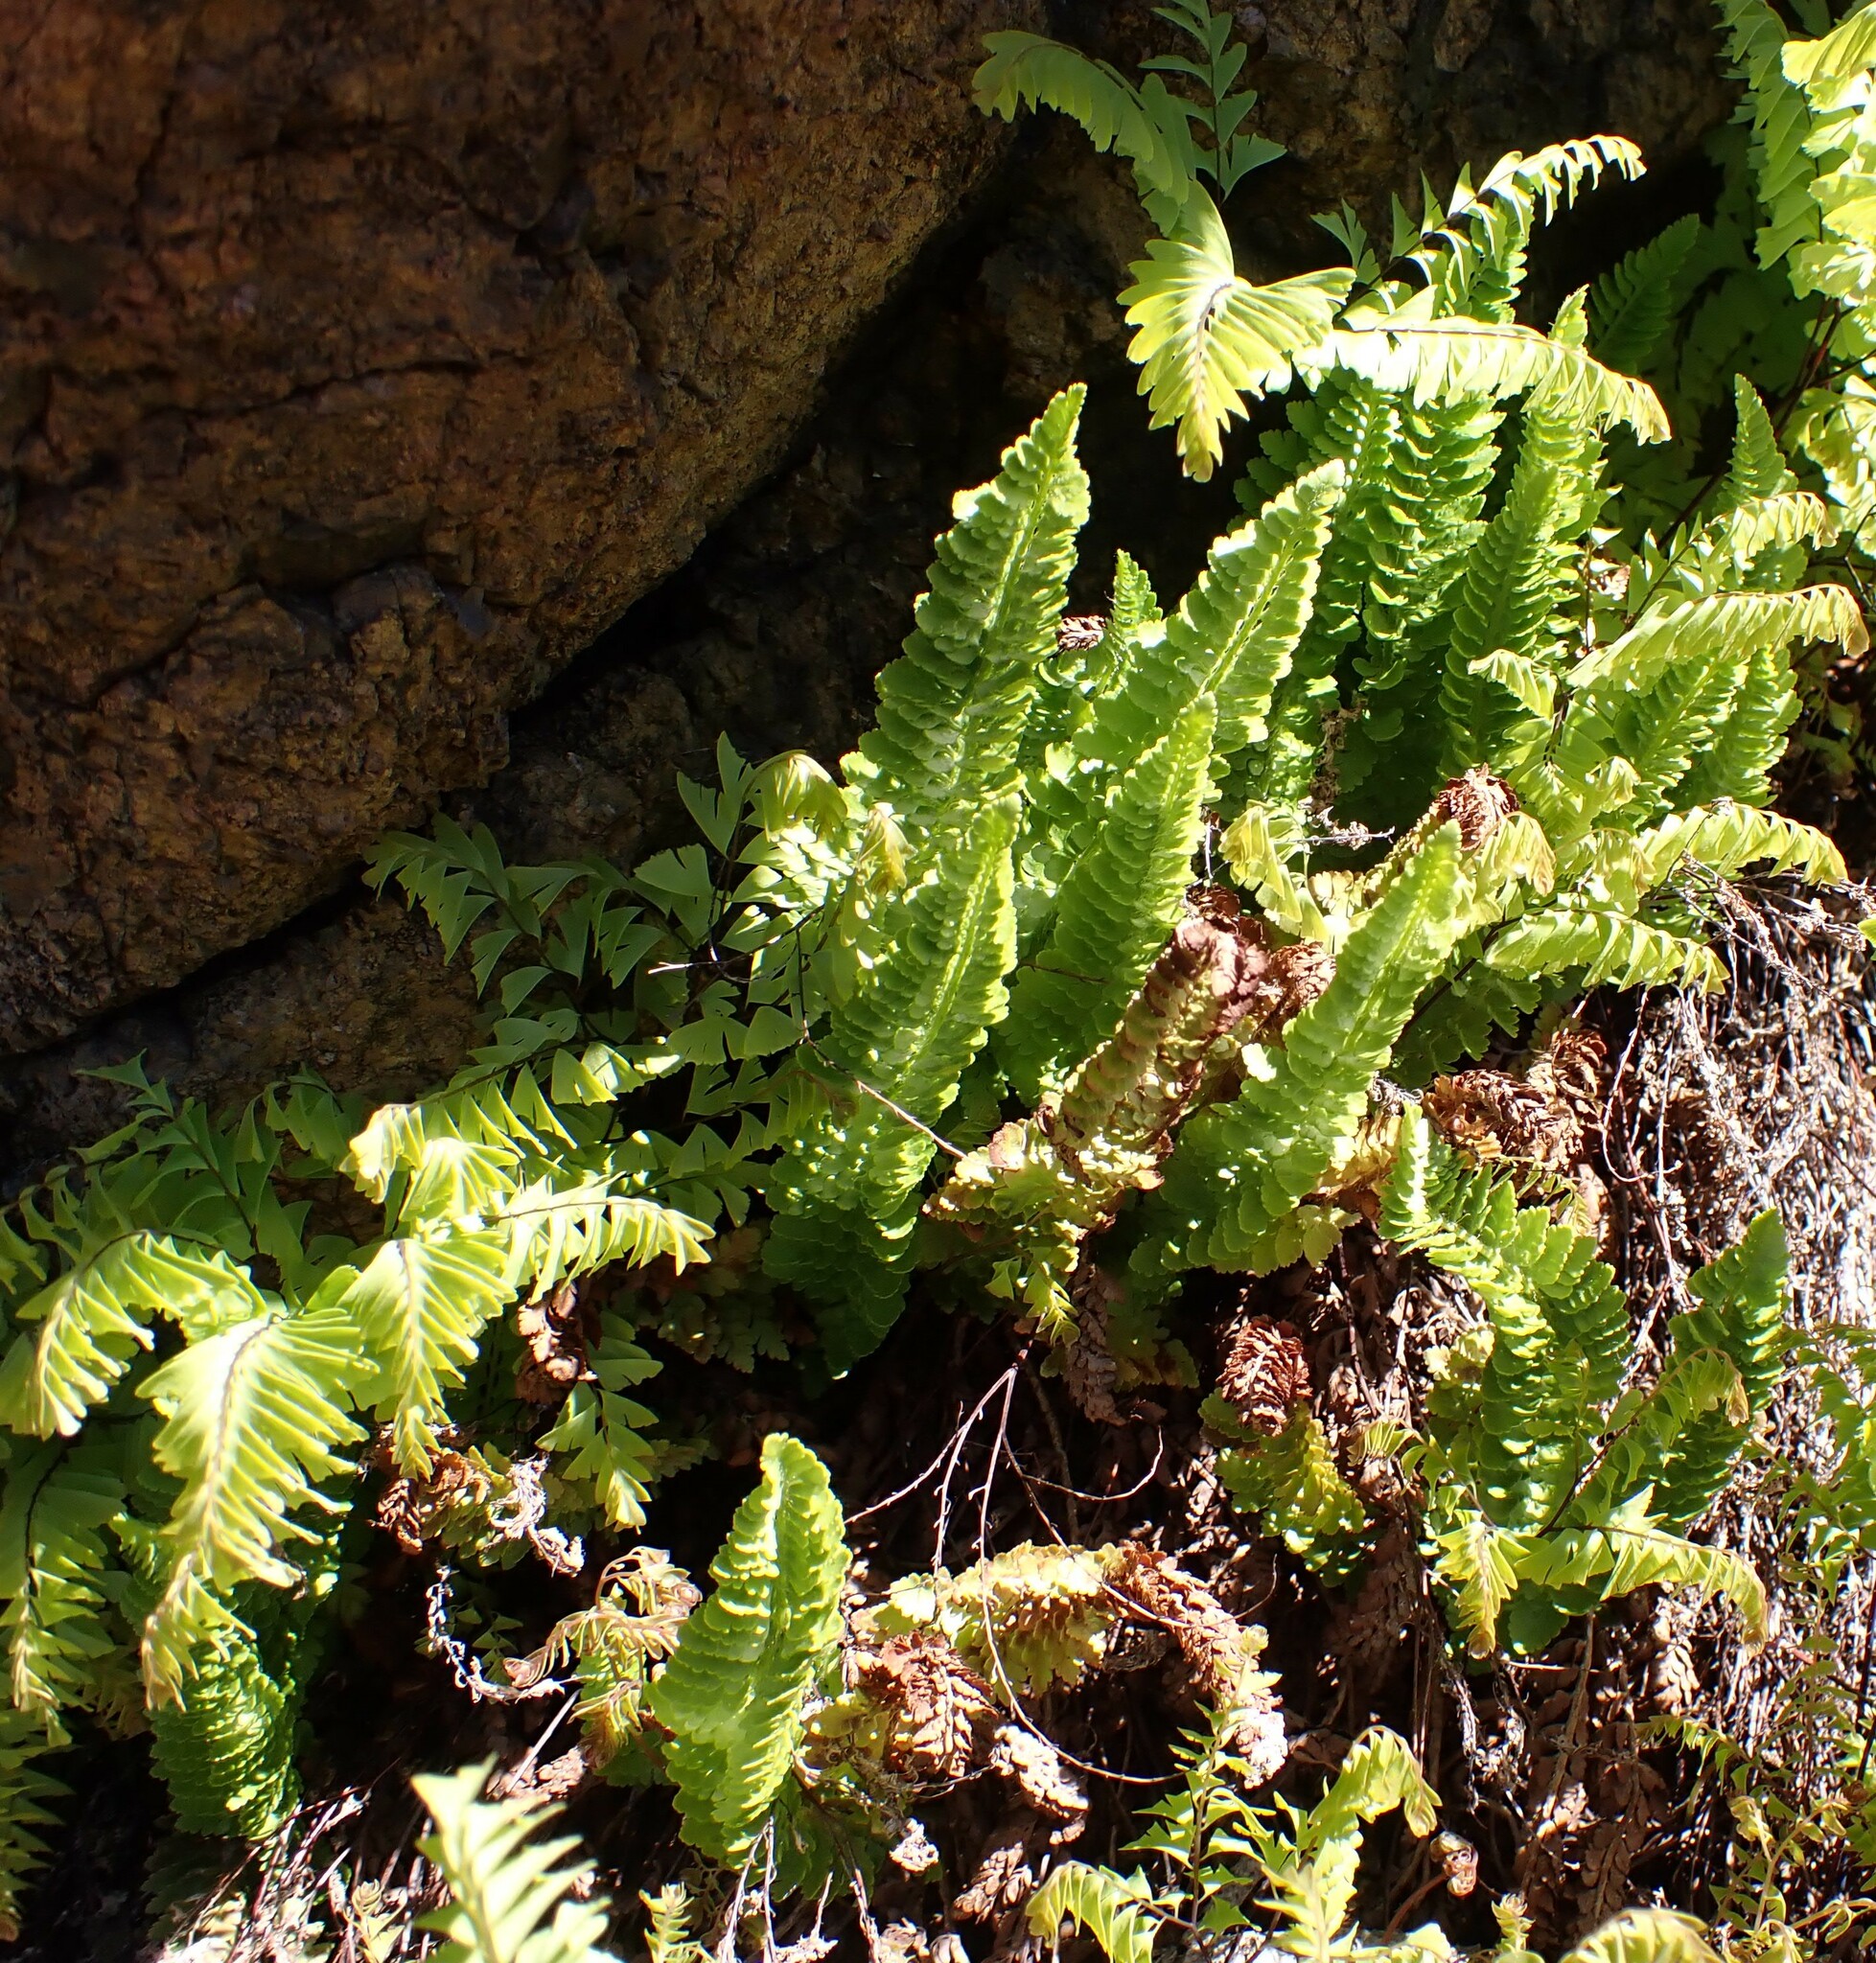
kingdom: Plantae
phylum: Tracheophyta
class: Polypodiopsida
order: Polypodiales
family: Dryopteridaceae
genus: Polystichum
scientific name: Polystichum lemmonii
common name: Lemmon's holly fern
